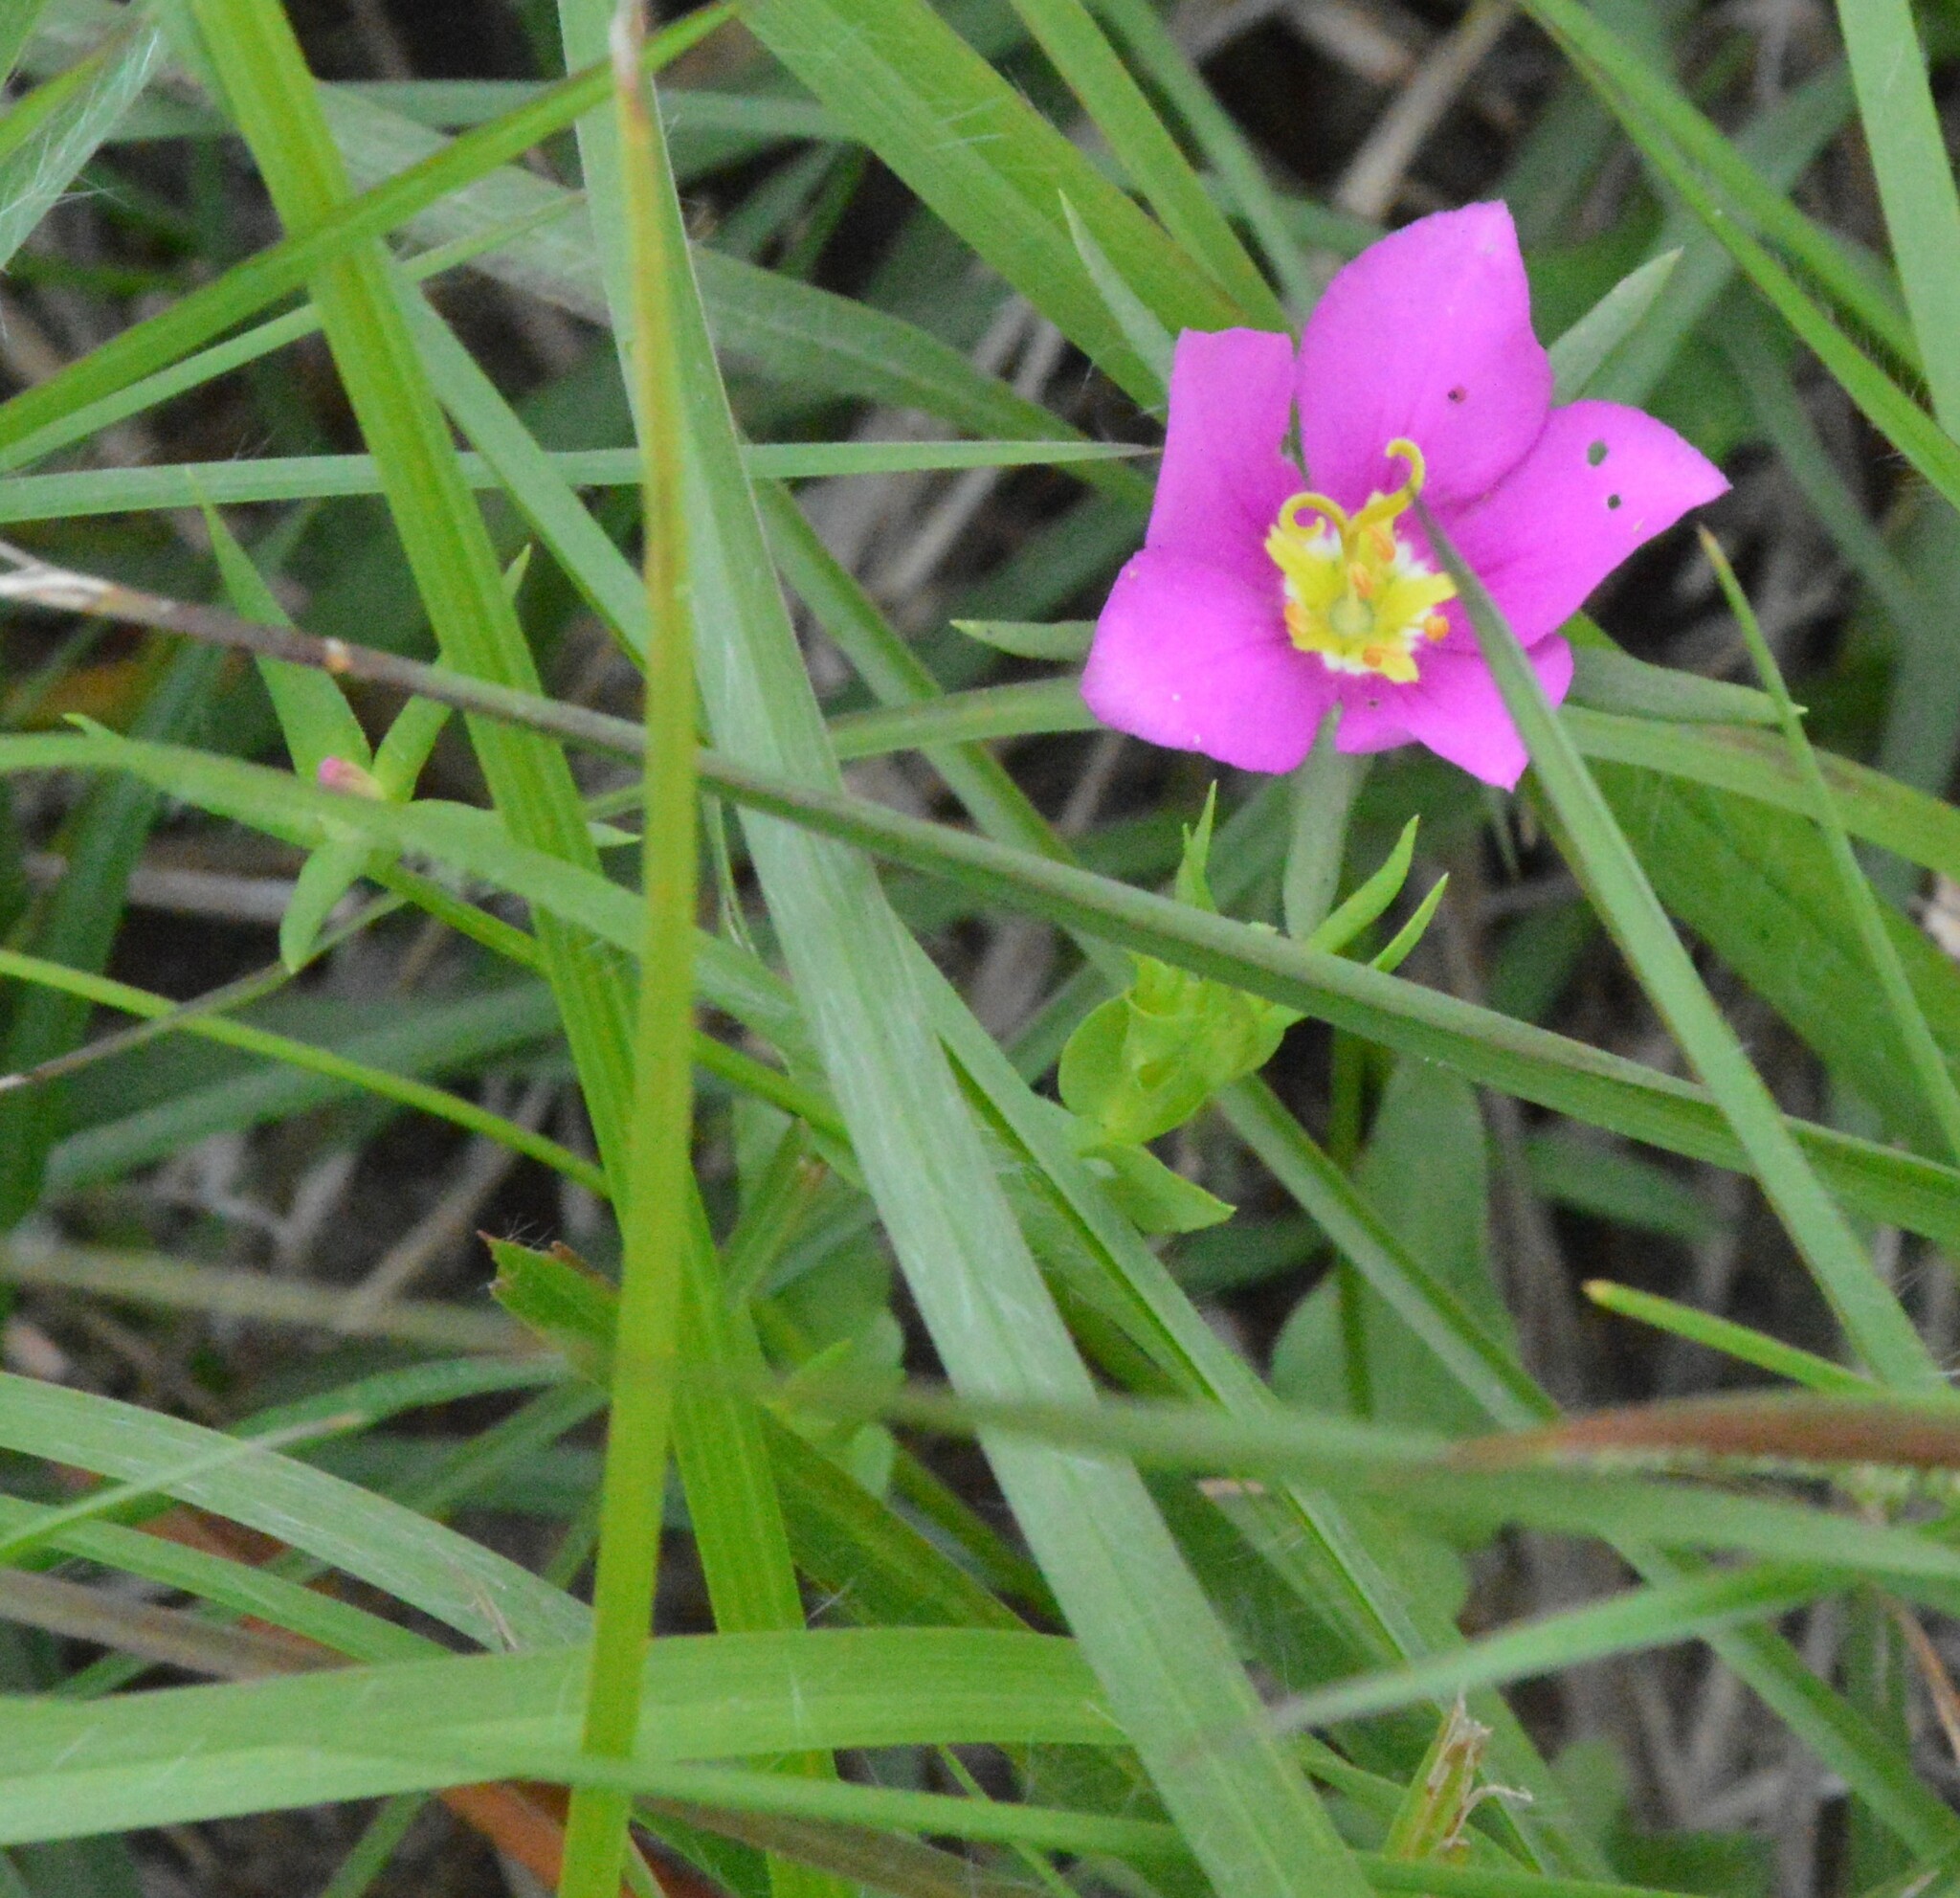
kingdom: Plantae
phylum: Tracheophyta
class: Magnoliopsida
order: Gentianales
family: Gentianaceae
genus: Sabatia
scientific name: Sabatia campestris
